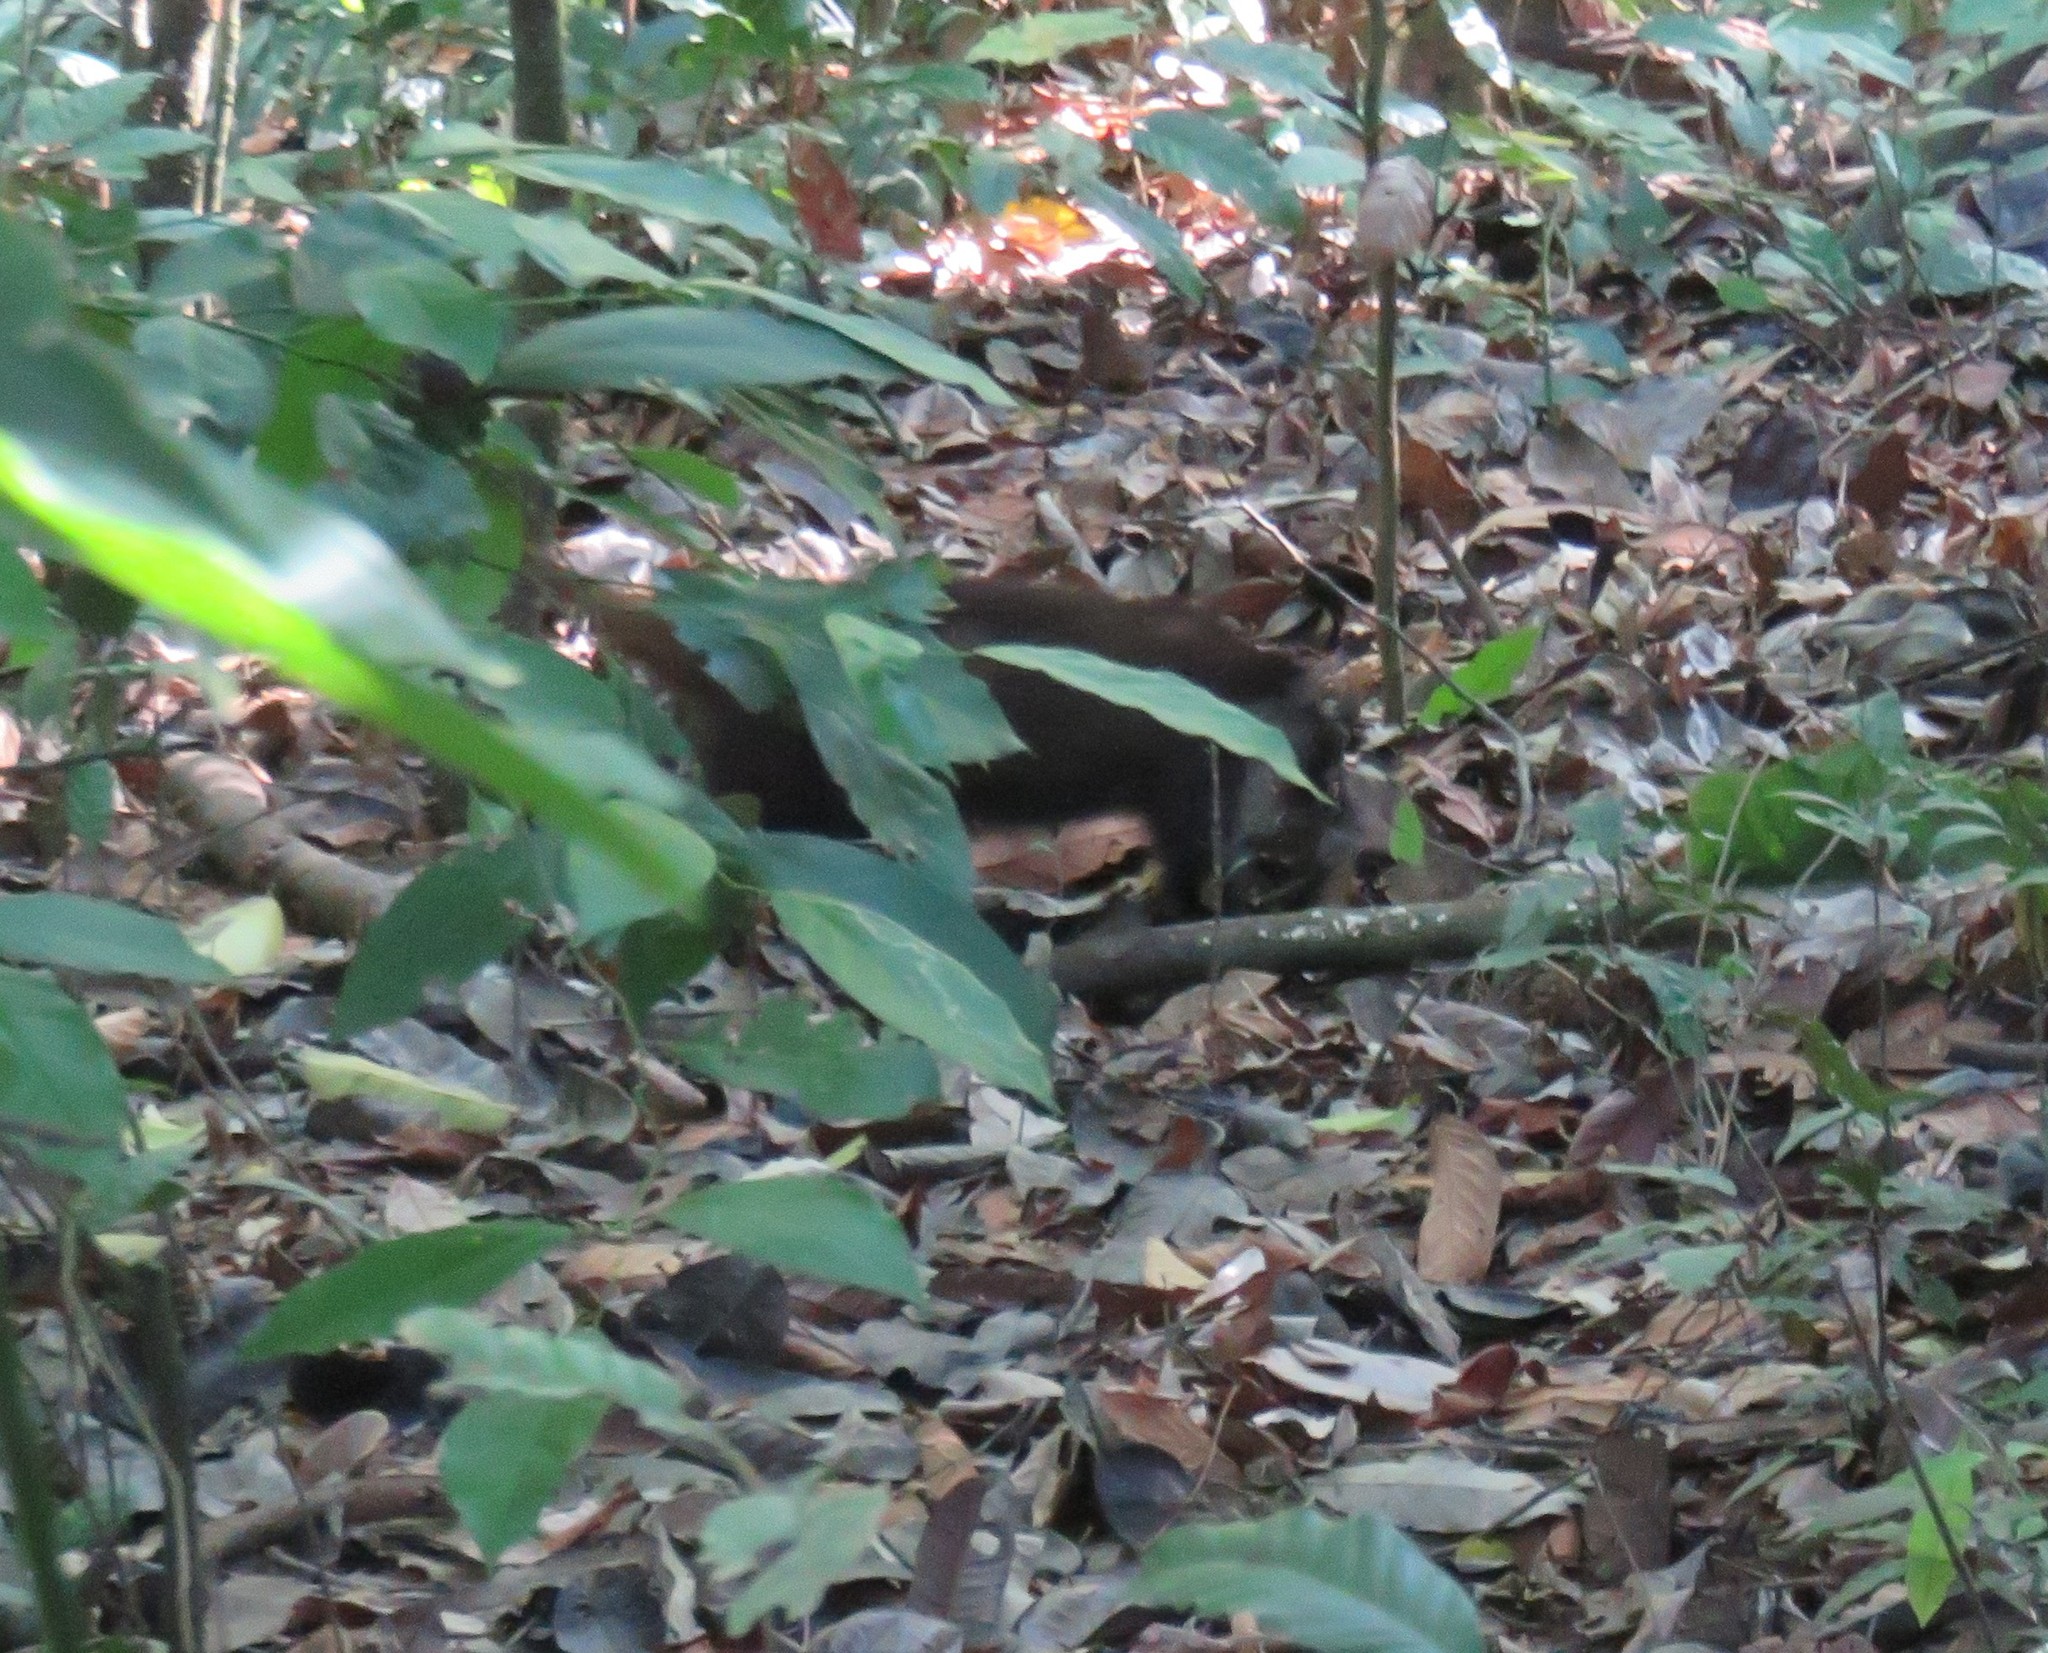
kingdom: Animalia
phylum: Chordata
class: Mammalia
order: Carnivora
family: Procyonidae
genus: Nasua
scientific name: Nasua narica
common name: White-nosed coati
